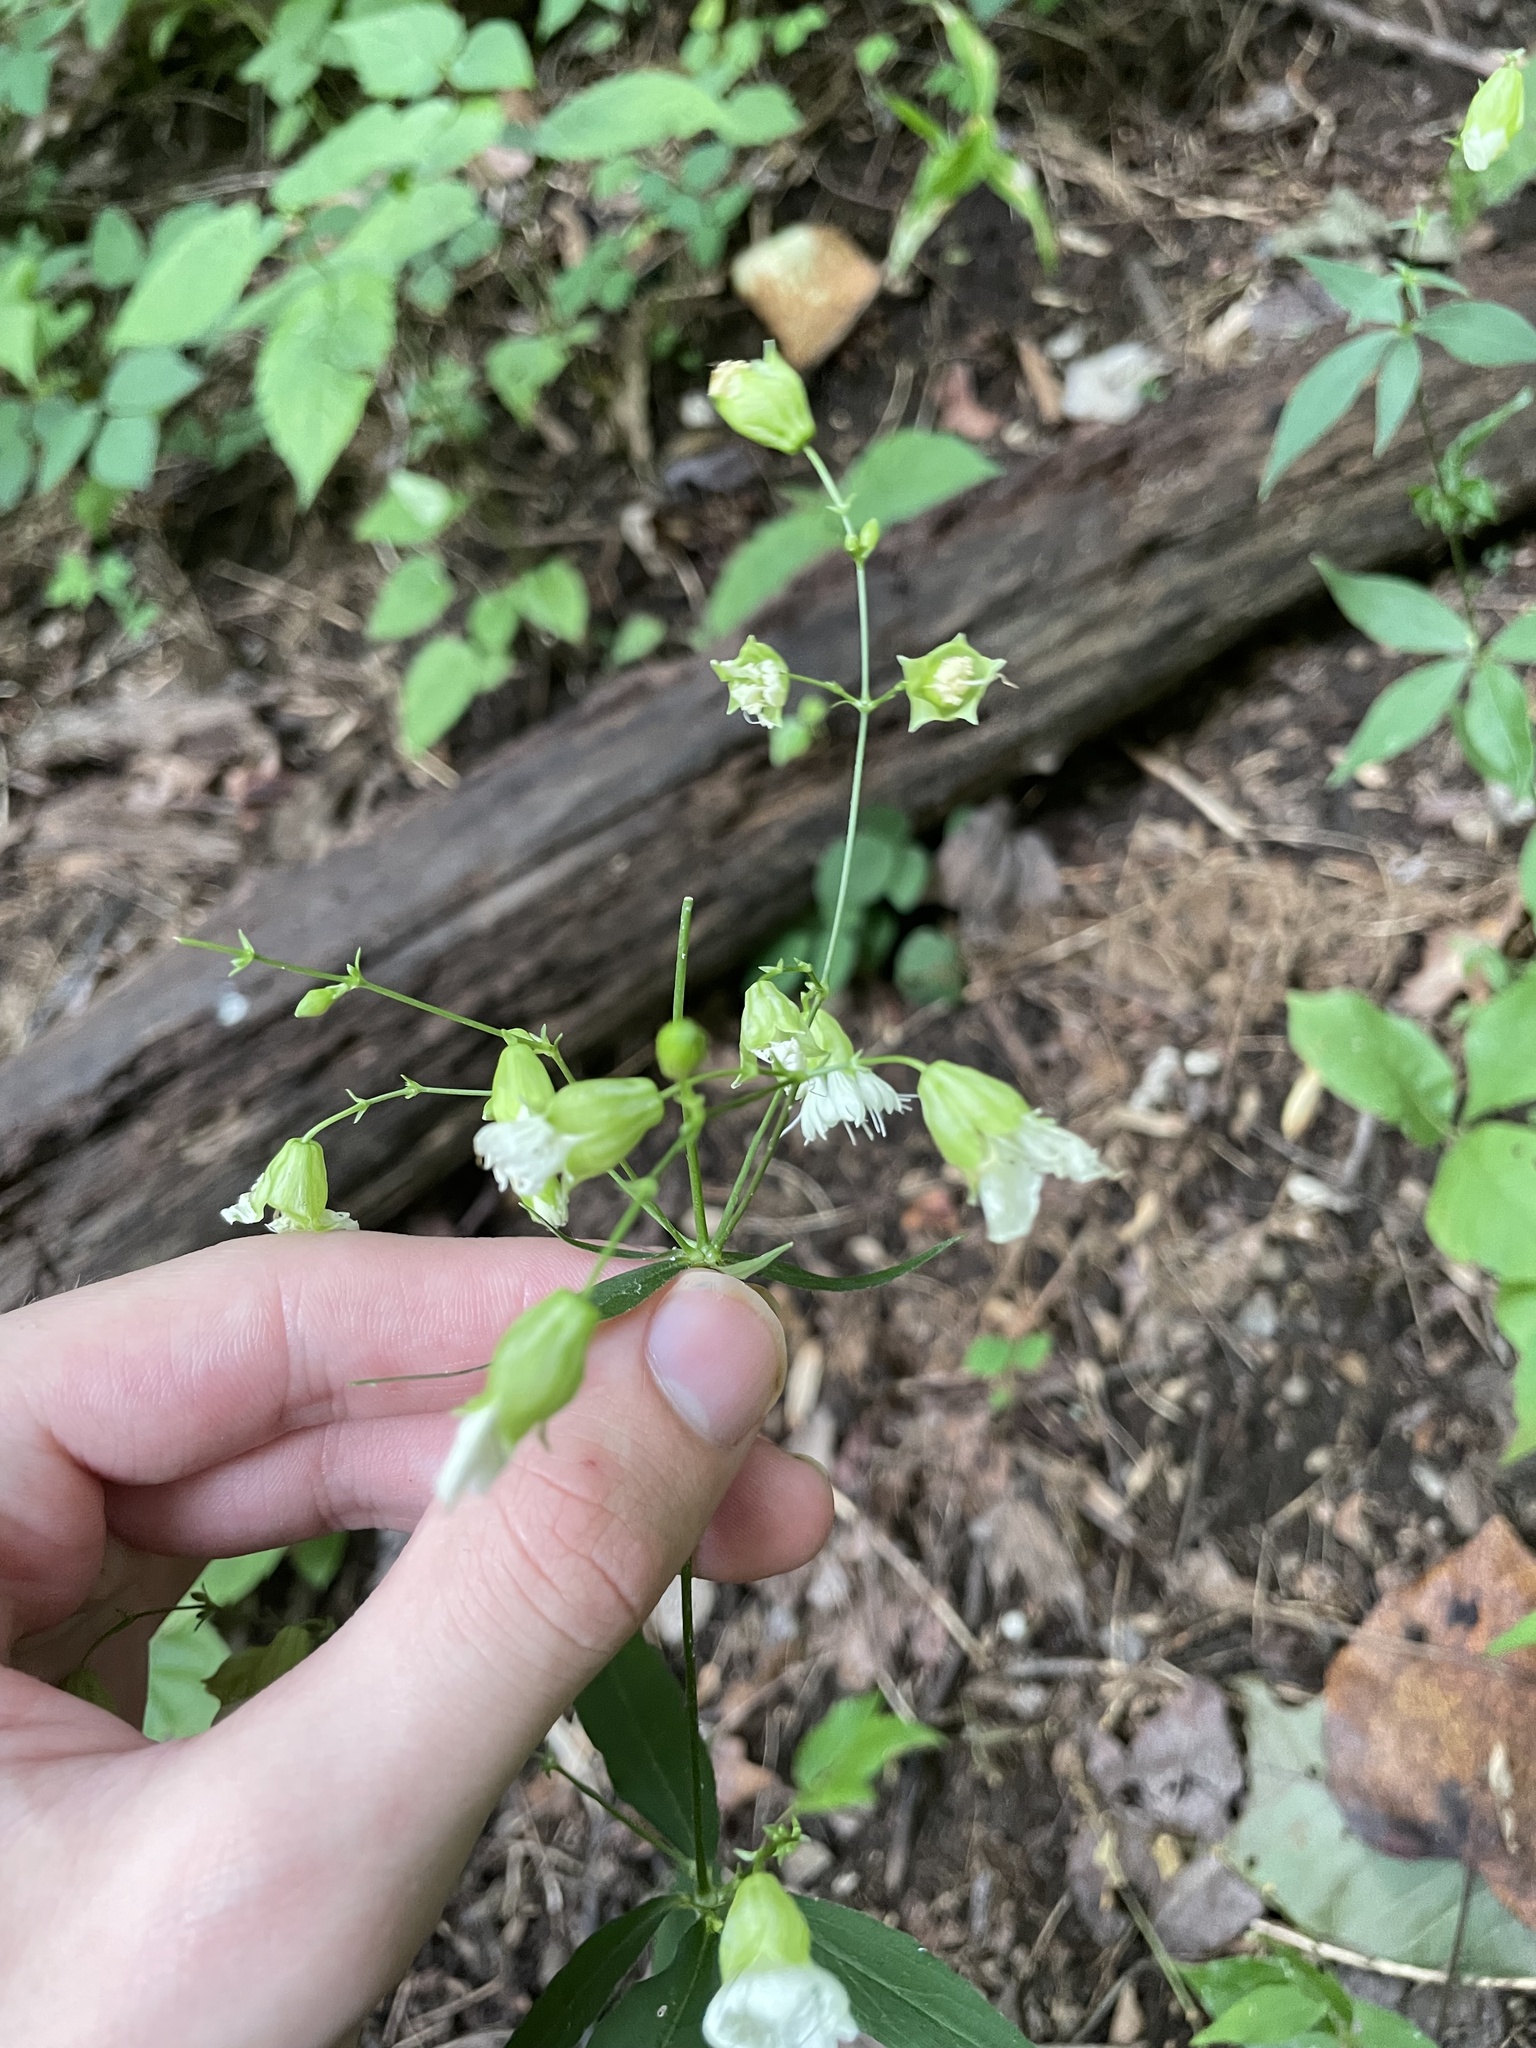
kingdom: Plantae
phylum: Tracheophyta
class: Magnoliopsida
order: Caryophyllales
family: Caryophyllaceae
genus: Silene
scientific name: Silene stellata
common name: Starry campion
